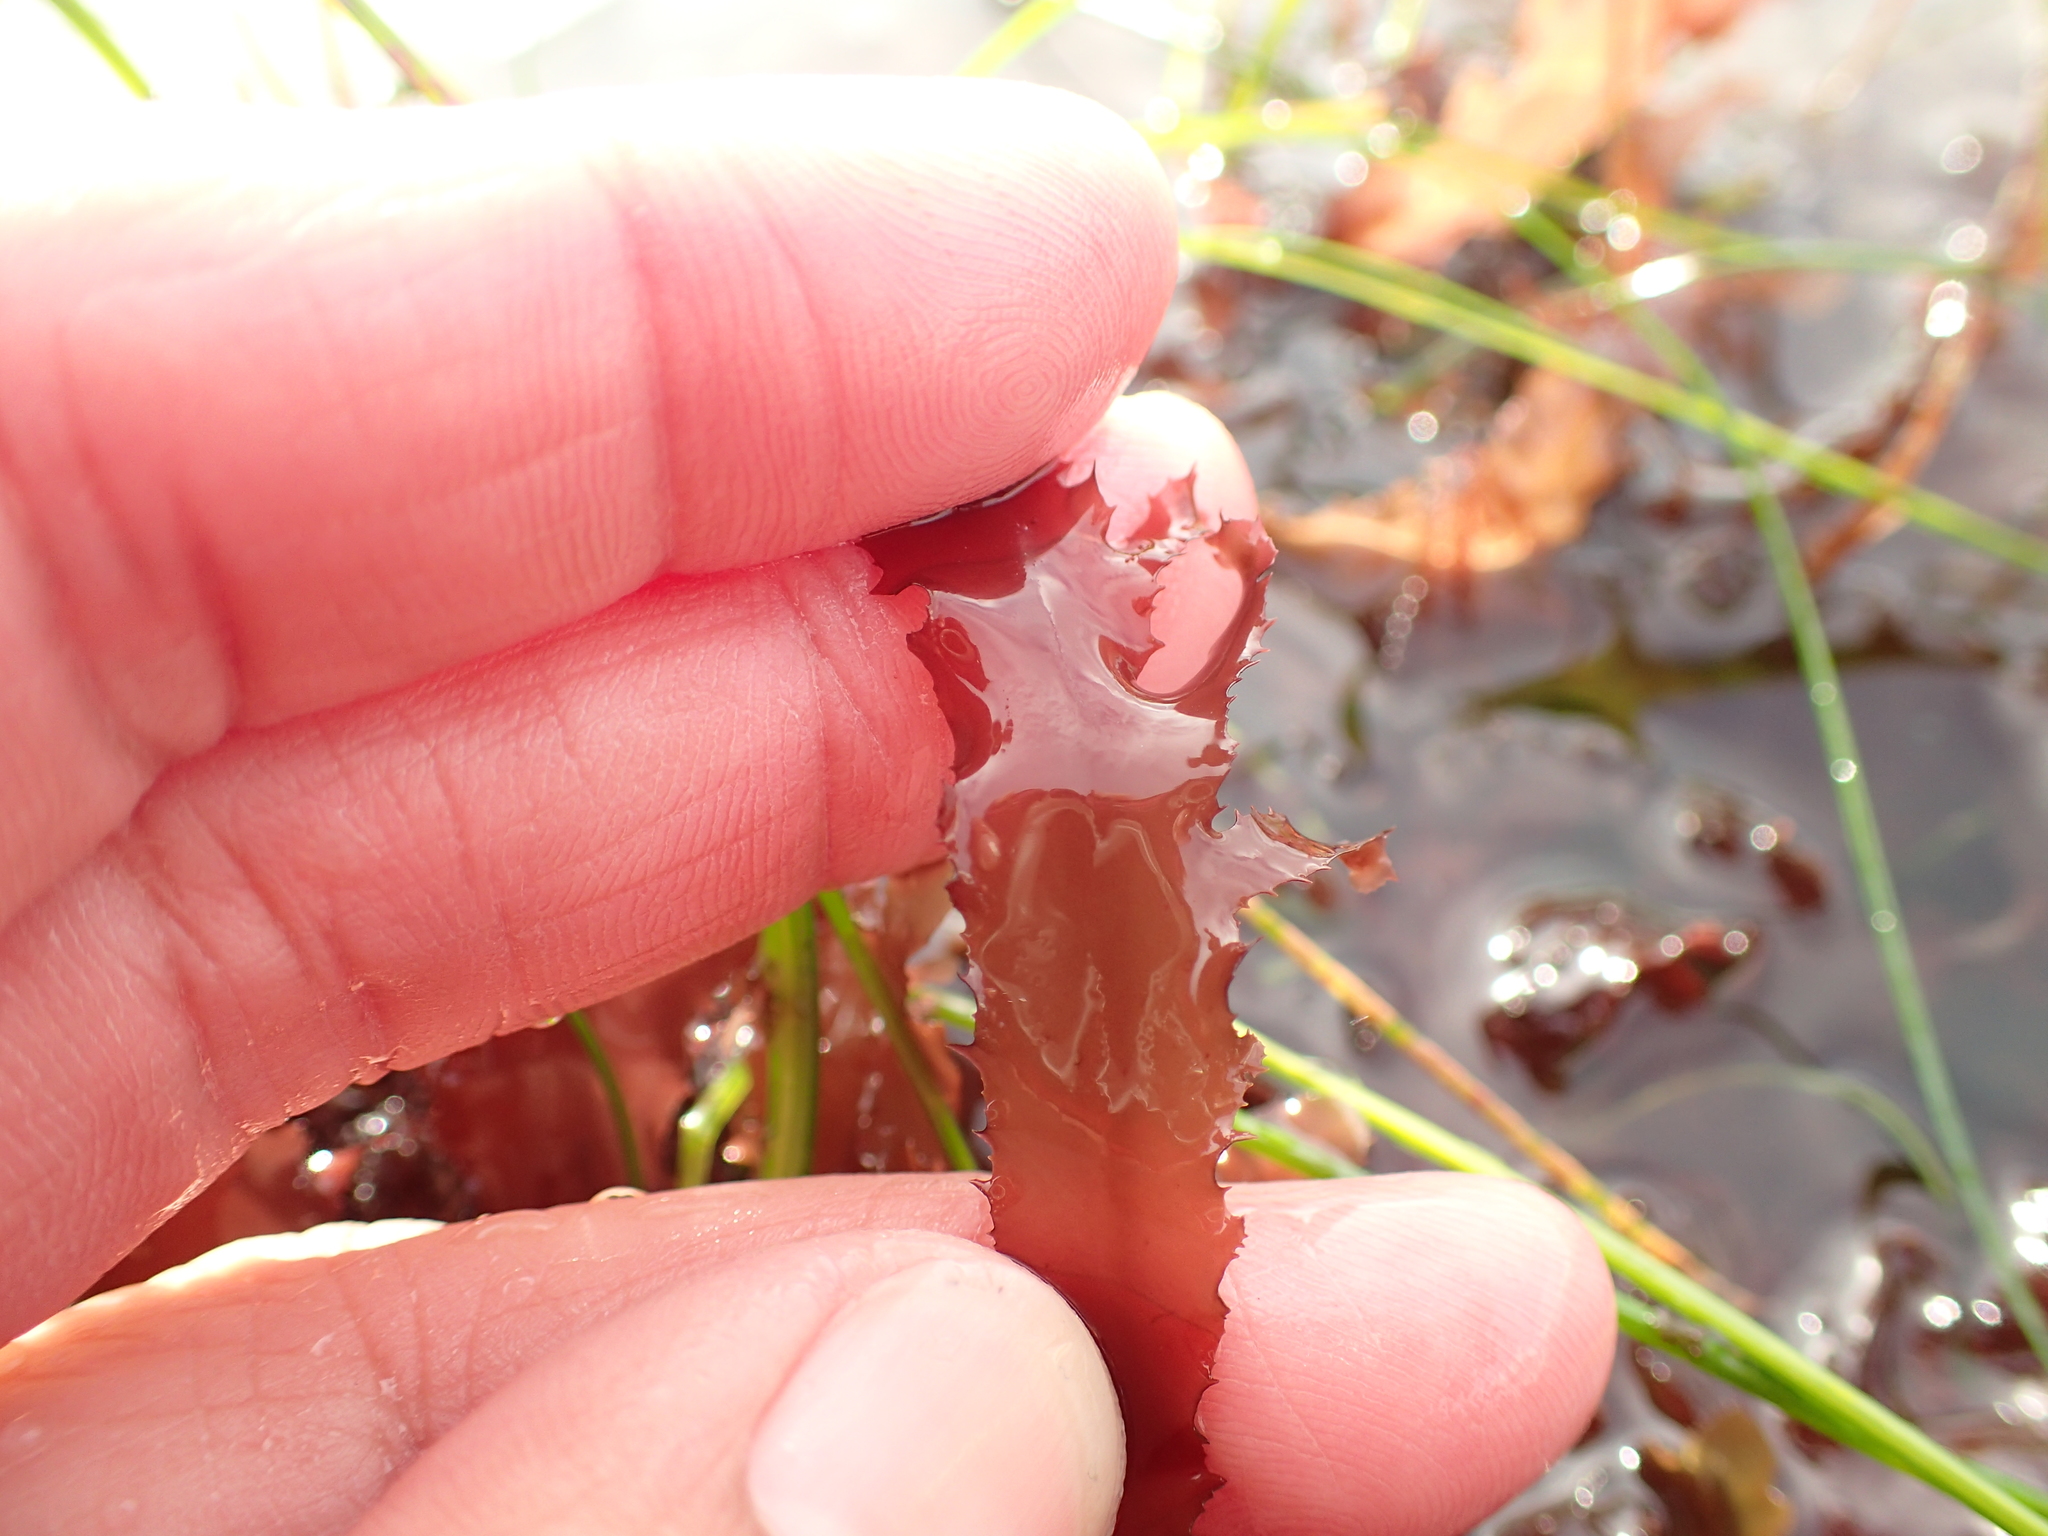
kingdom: Plantae
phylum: Rhodophyta
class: Florideophyceae
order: Ceramiales
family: Delesseriaceae
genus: Cryptopleura
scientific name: Cryptopleura ruprechtiana
